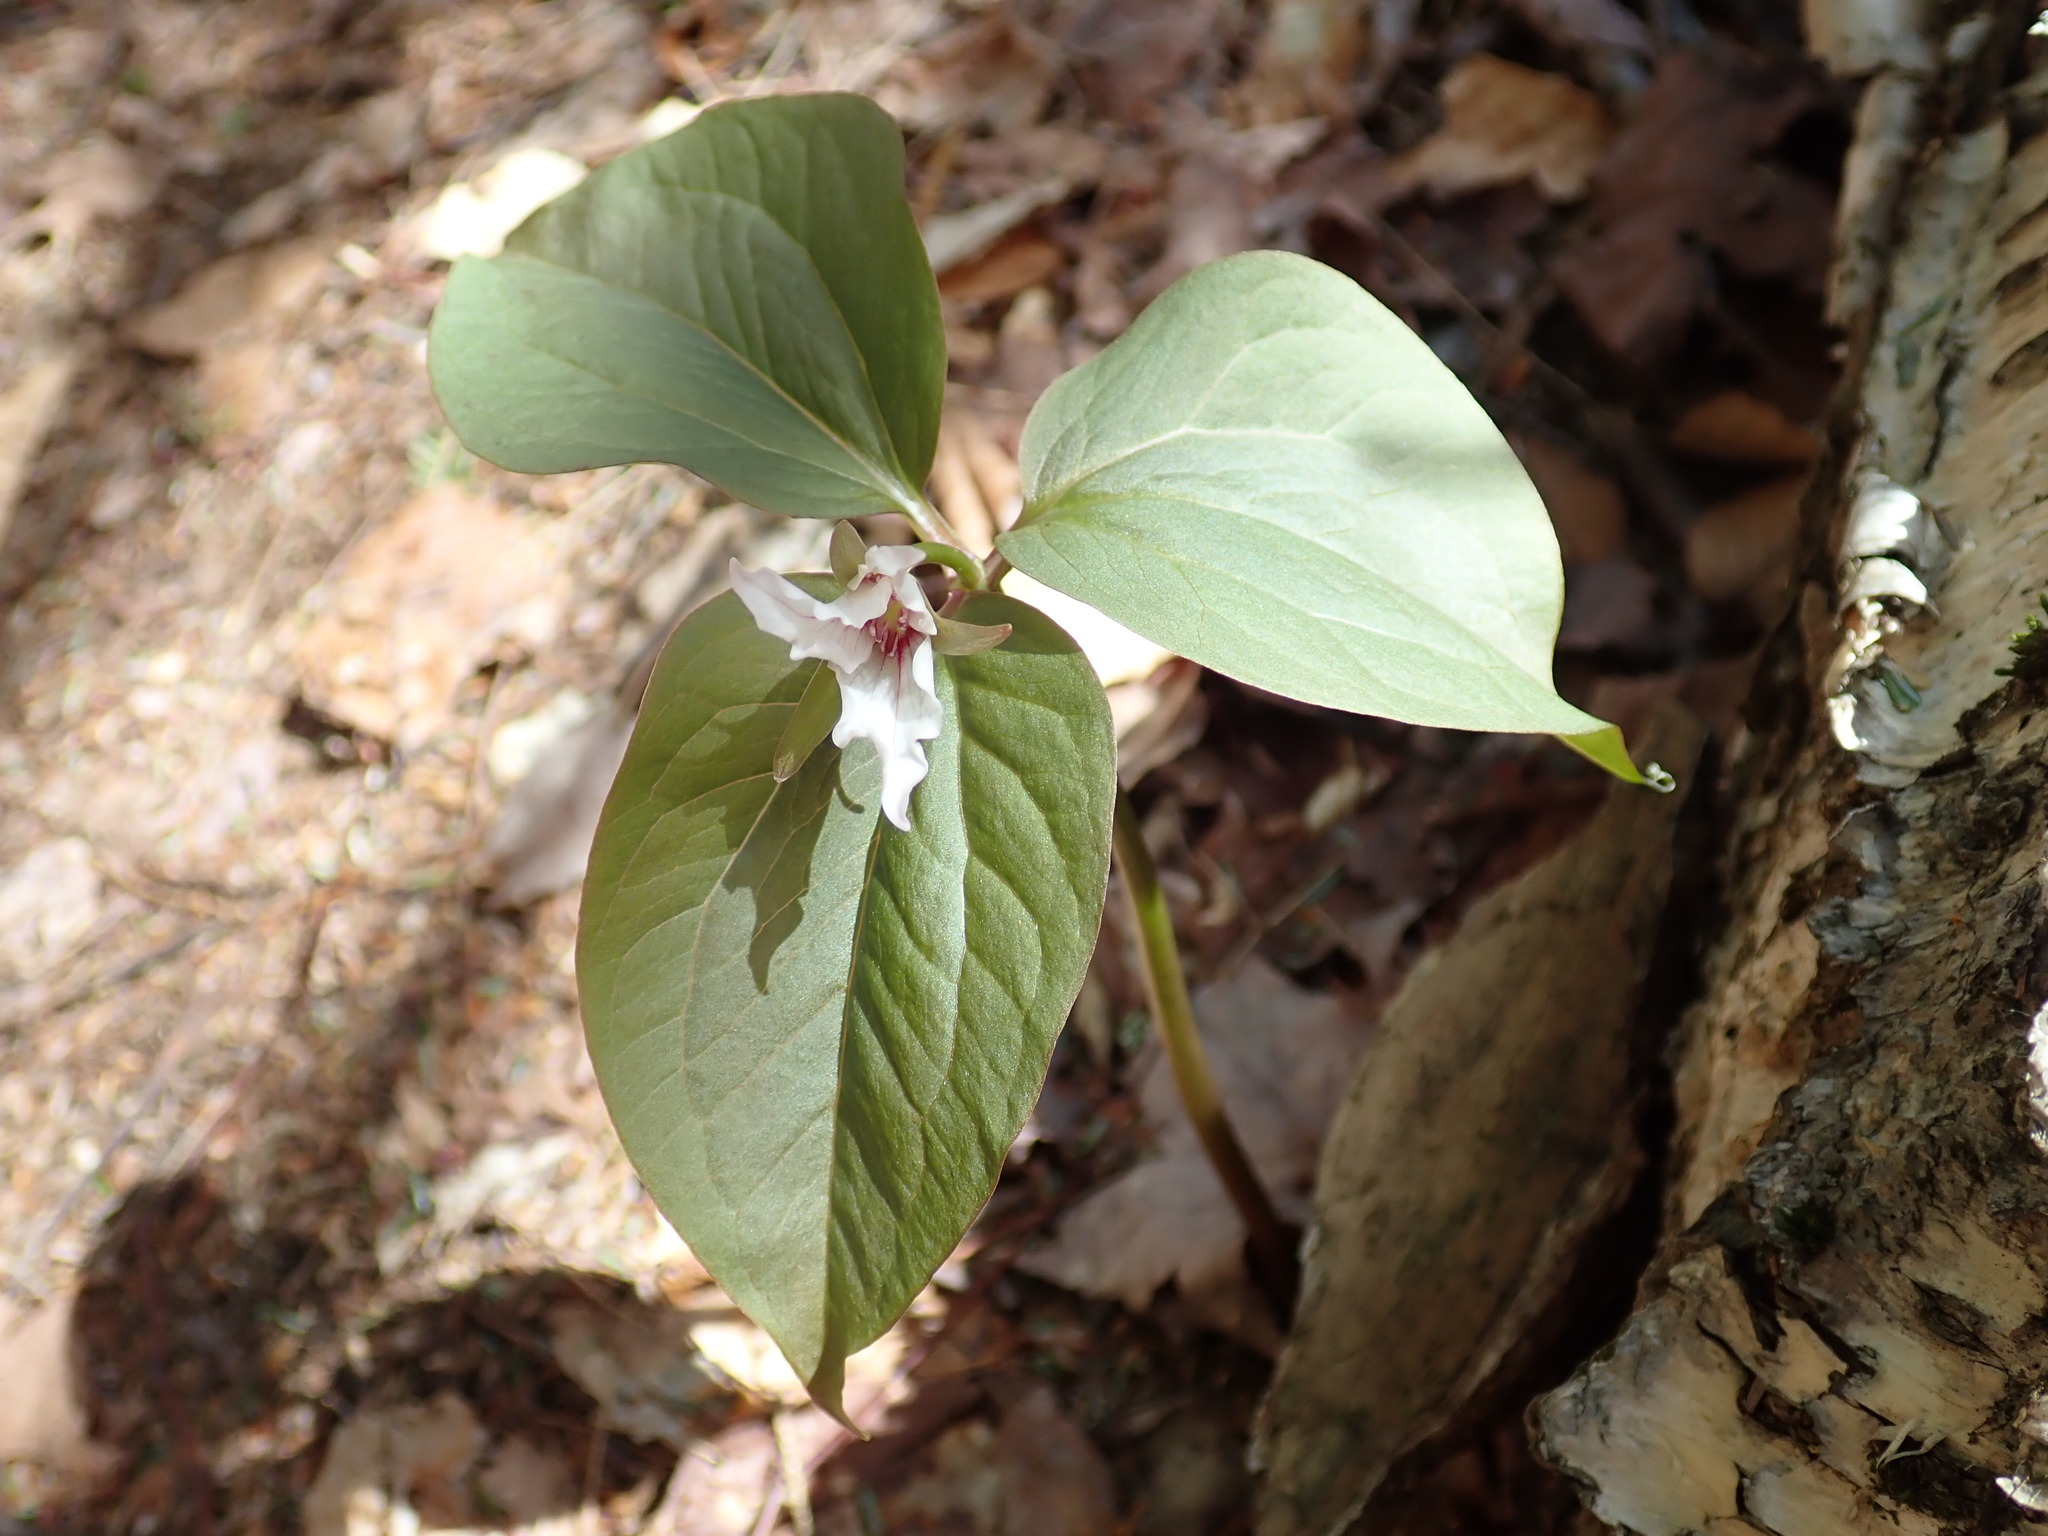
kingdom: Plantae
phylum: Tracheophyta
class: Liliopsida
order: Liliales
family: Melanthiaceae
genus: Trillium
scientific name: Trillium undulatum
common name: Paint trillium
